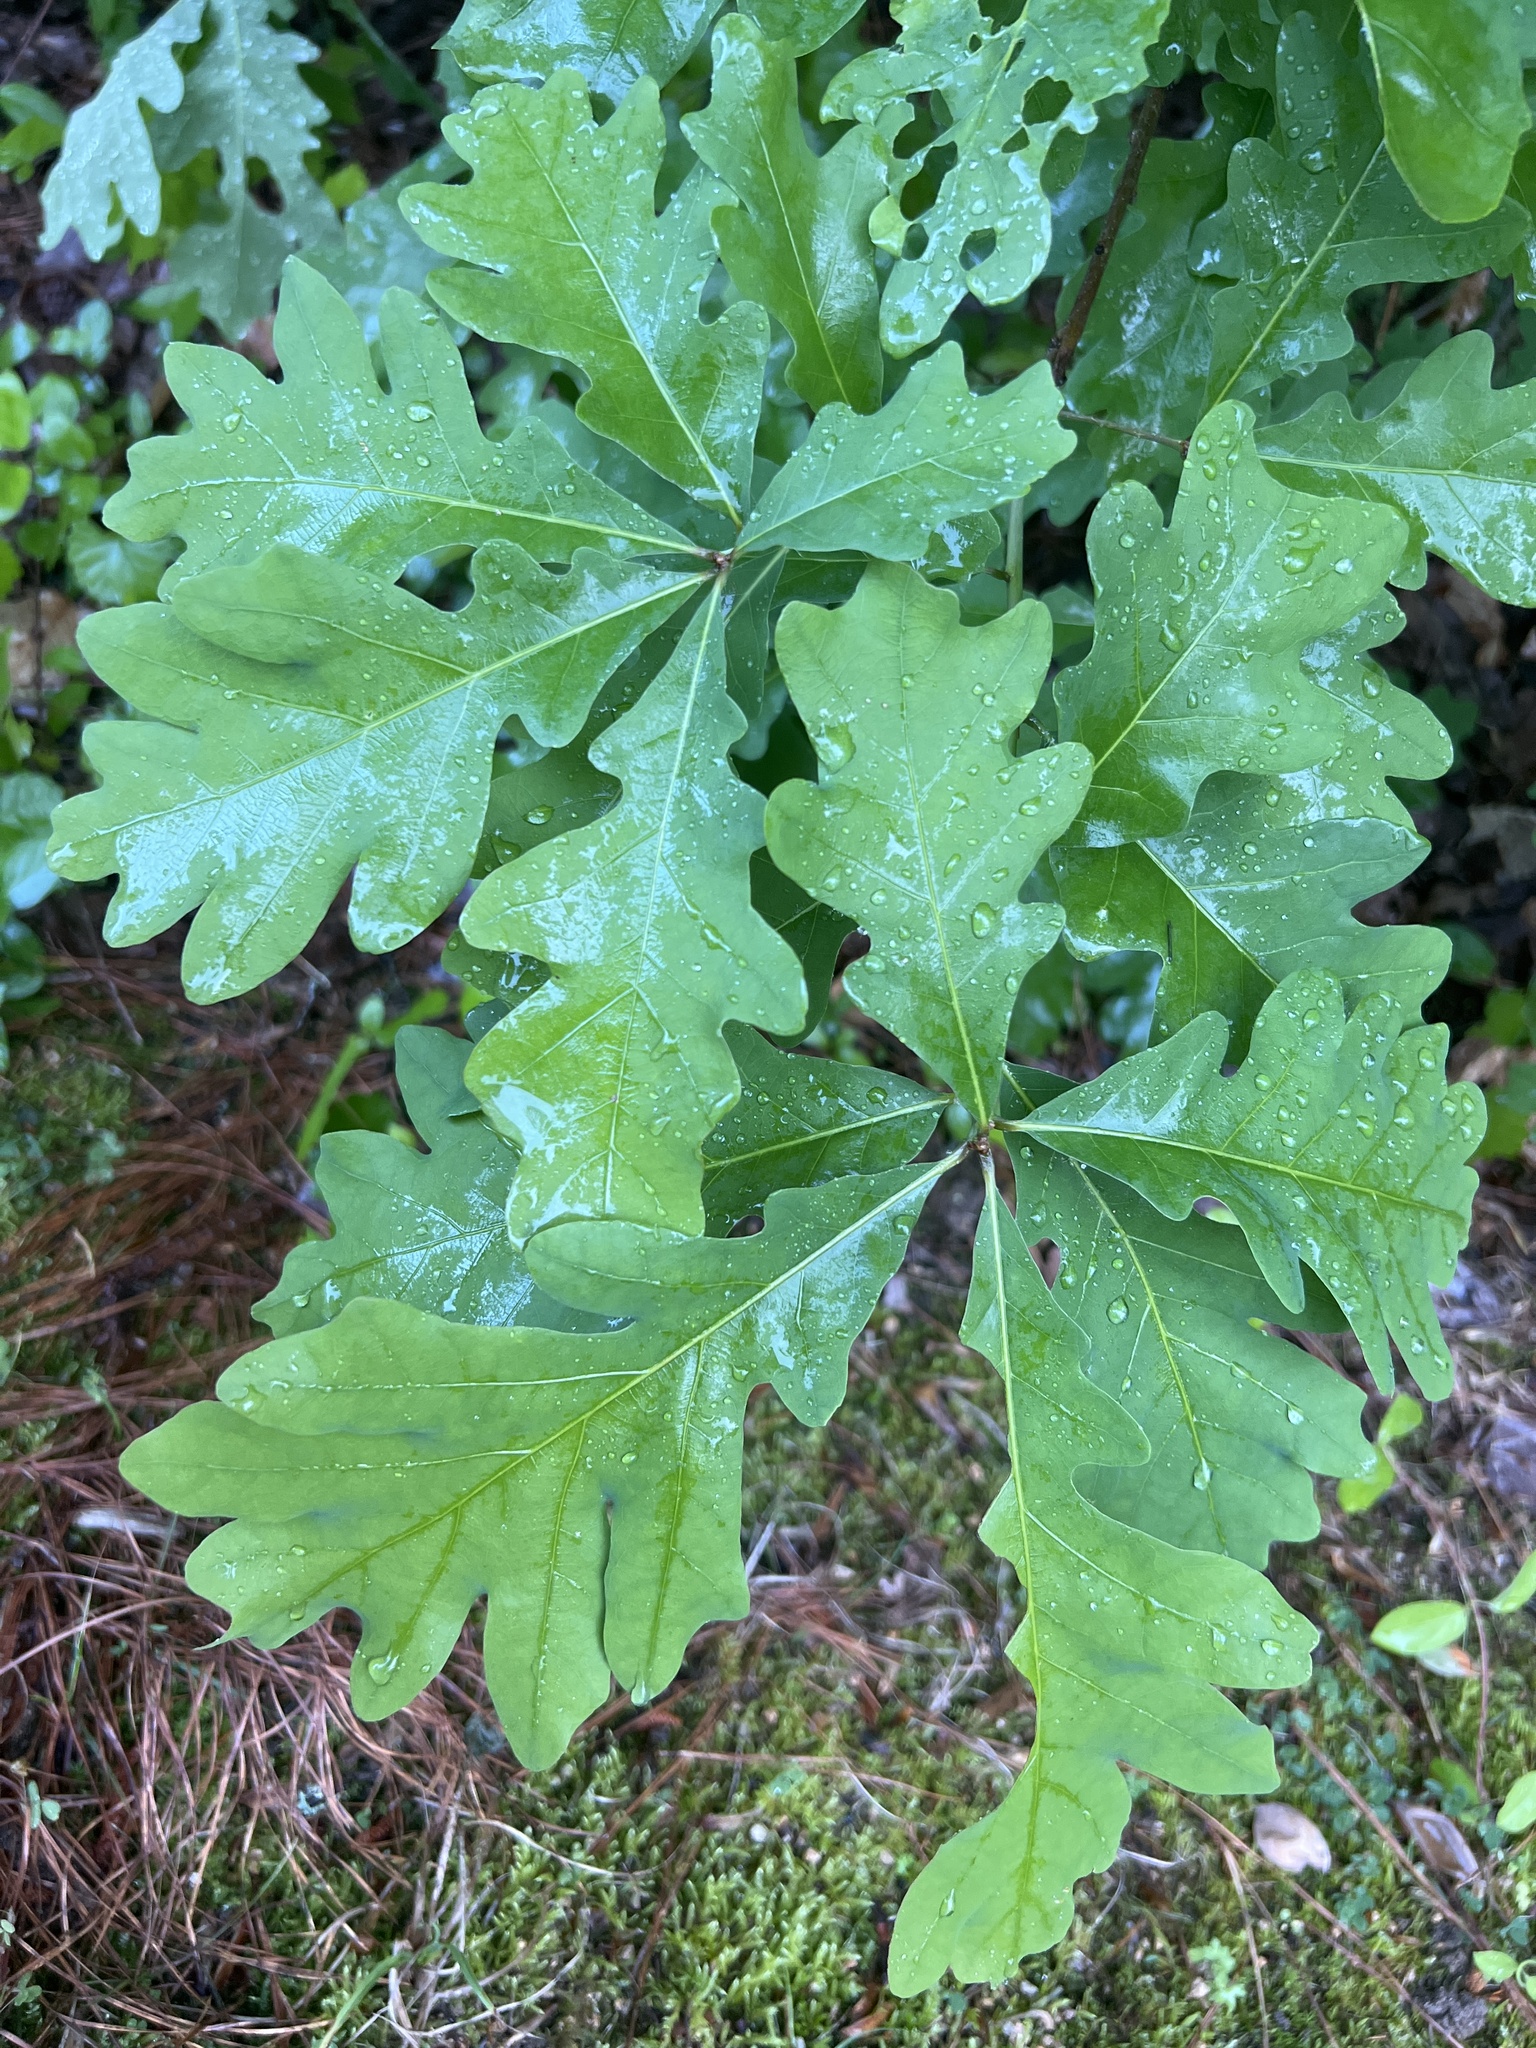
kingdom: Plantae
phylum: Tracheophyta
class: Magnoliopsida
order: Fagales
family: Fagaceae
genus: Quercus
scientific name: Quercus alba
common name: White oak
